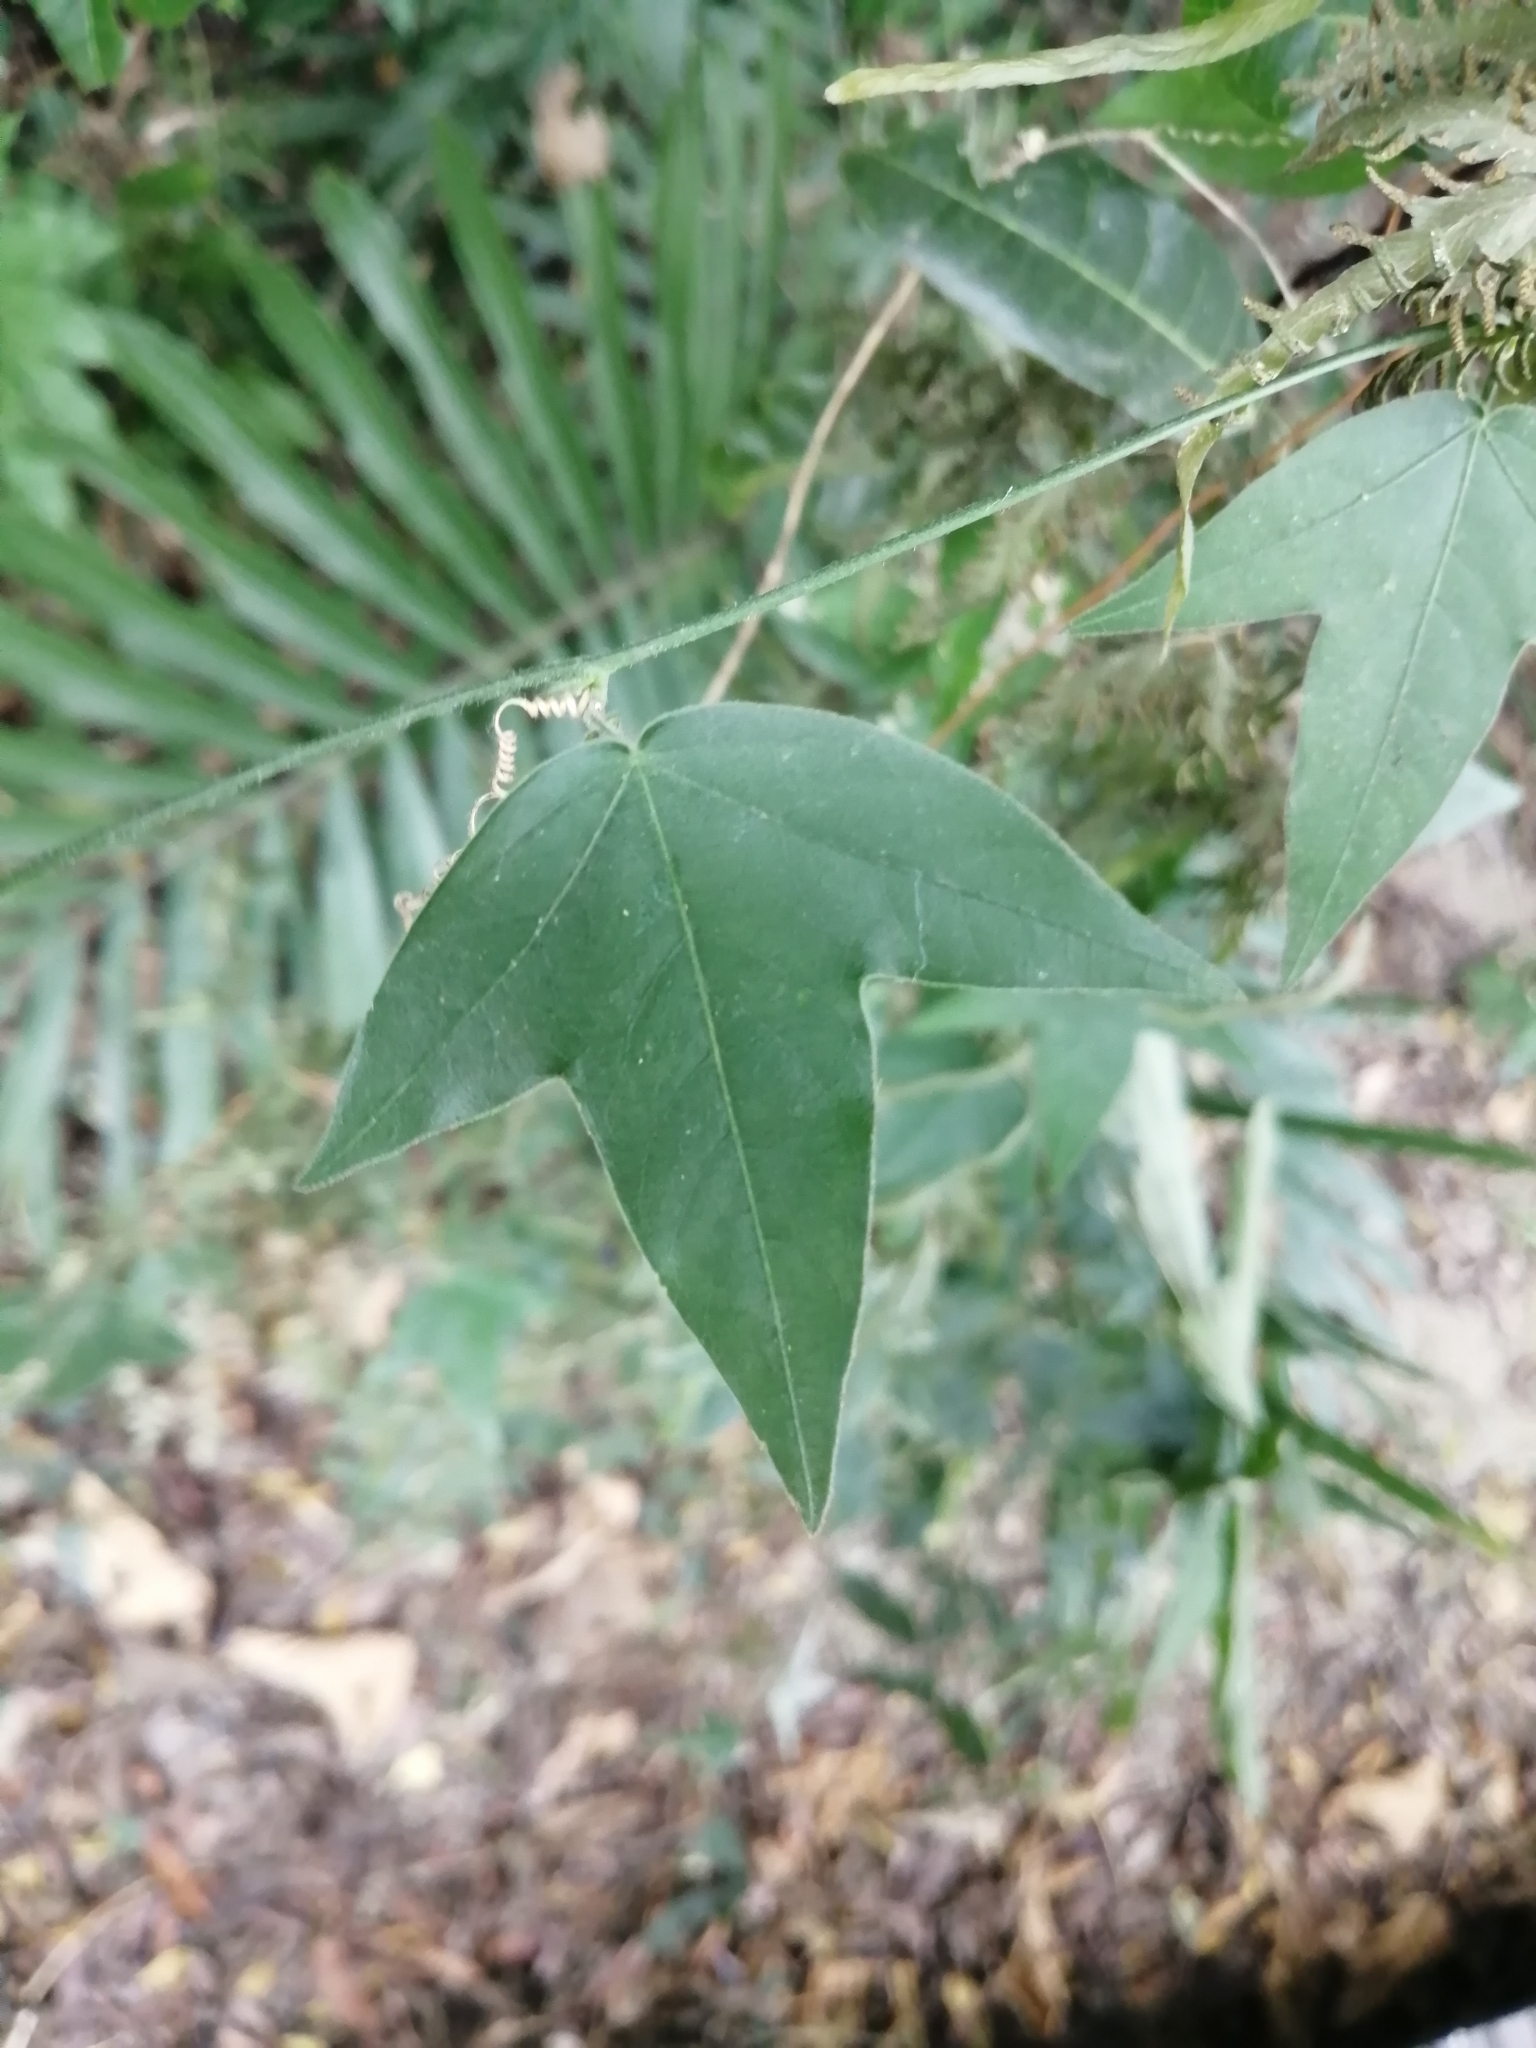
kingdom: Plantae
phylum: Tracheophyta
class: Magnoliopsida
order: Malpighiales
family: Passifloraceae
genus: Passiflora
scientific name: Passiflora suberosa
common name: Wild passionfruit
